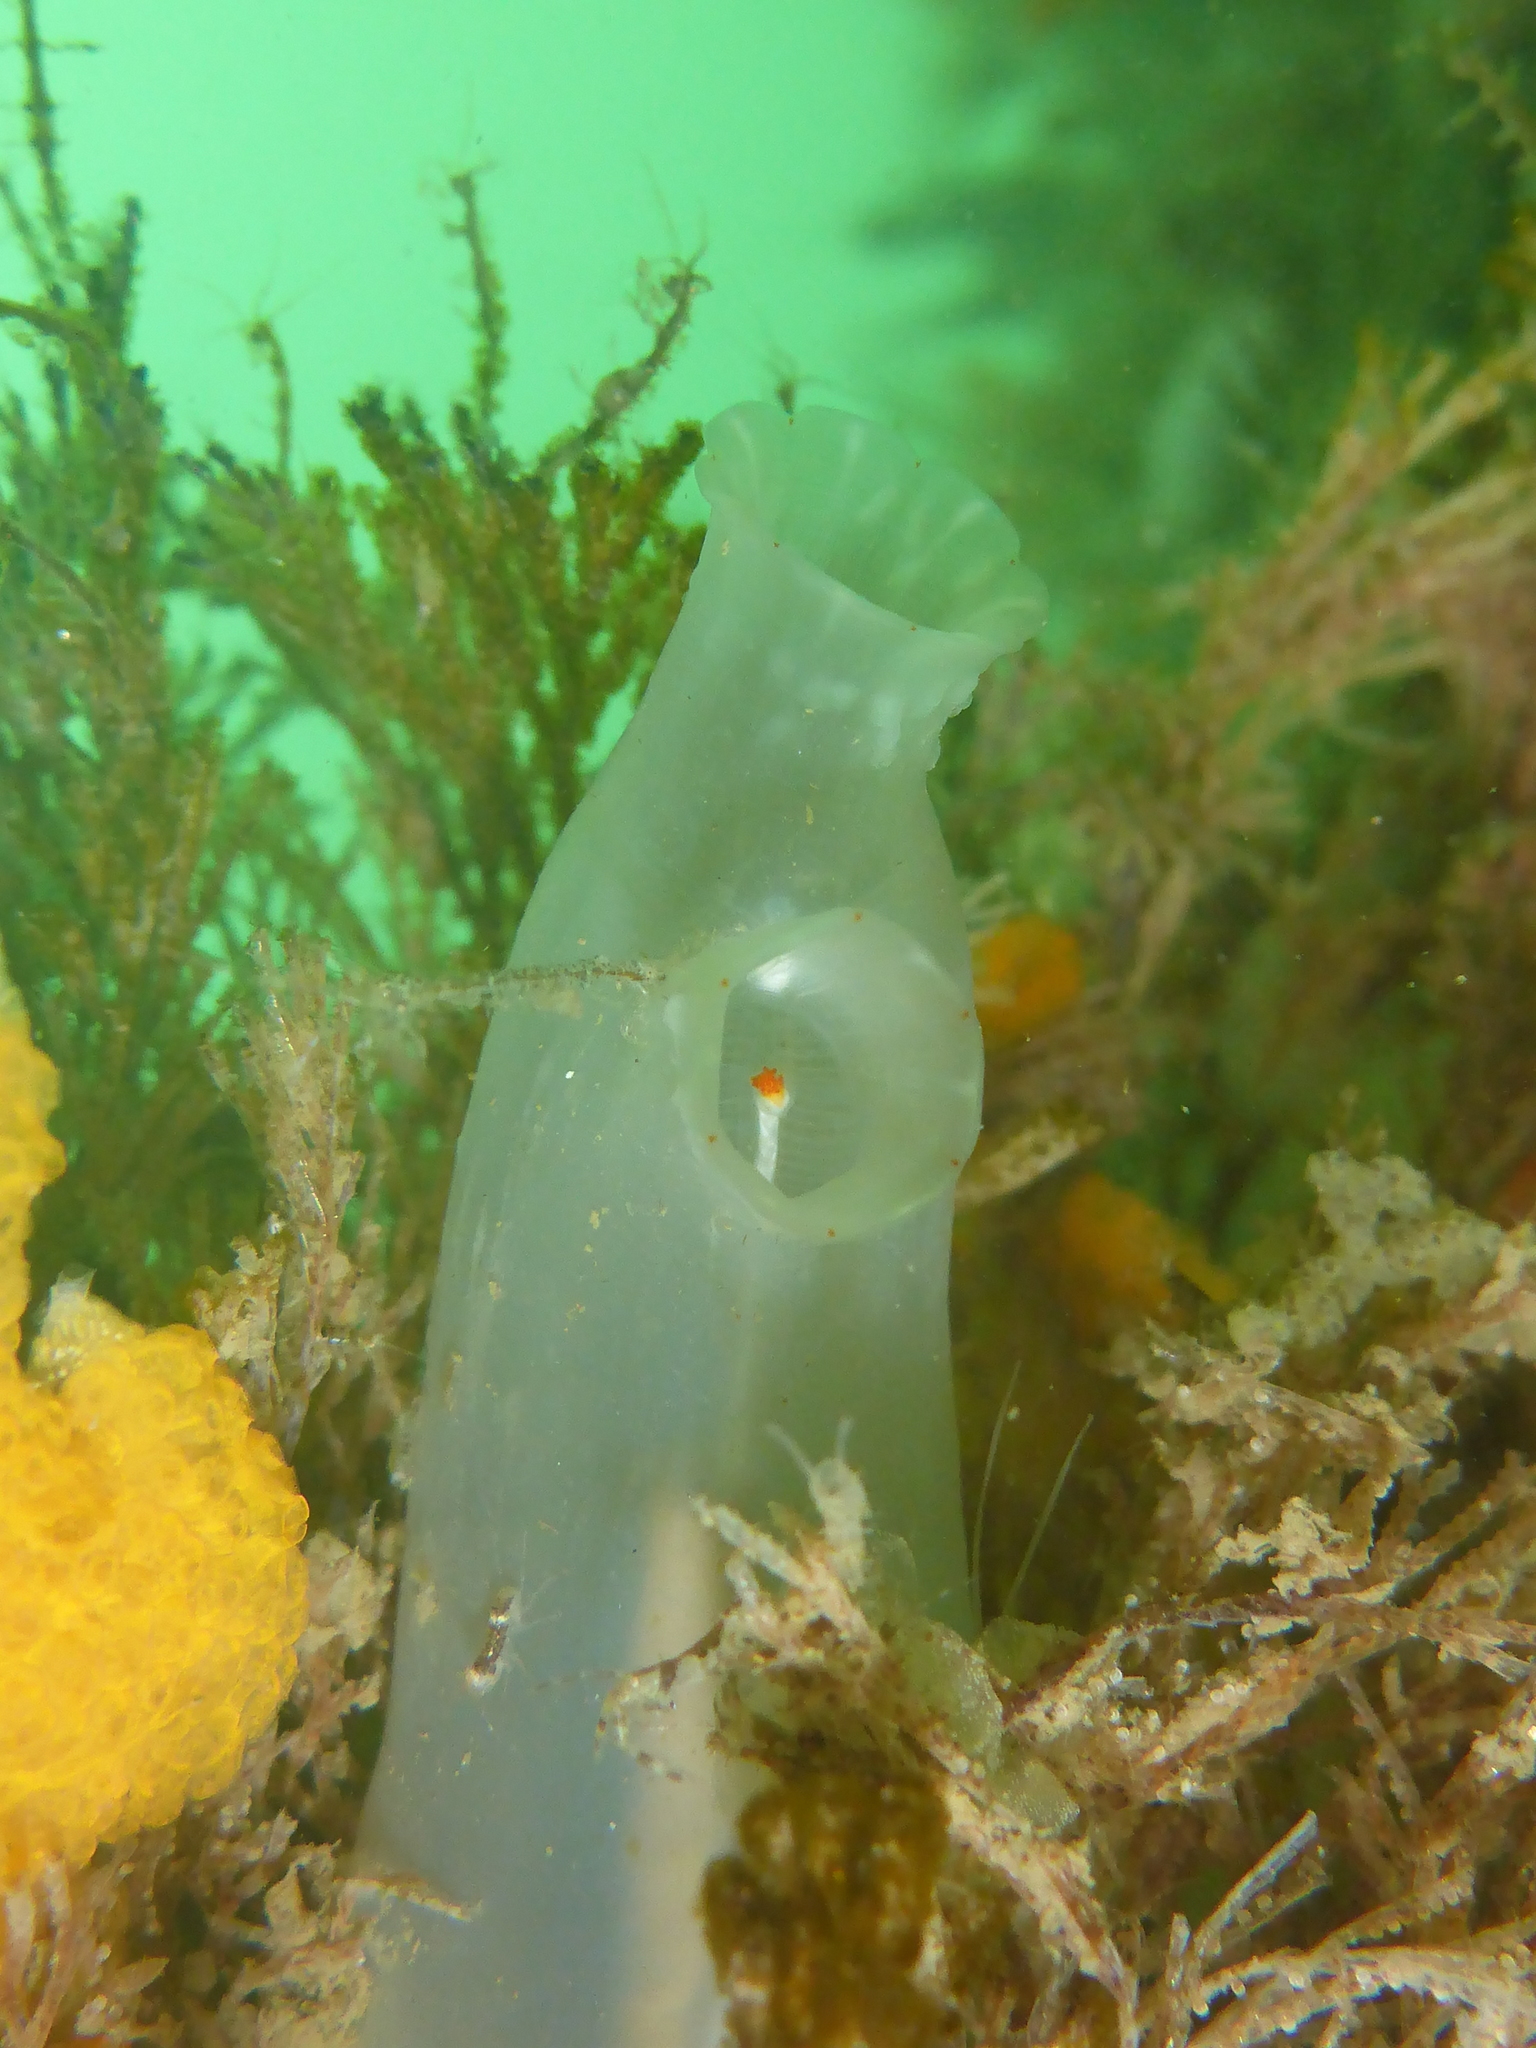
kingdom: Animalia
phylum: Chordata
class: Ascidiacea
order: Phlebobranchia
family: Cionidae
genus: Ciona
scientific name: Ciona robusta
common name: Tunicate
